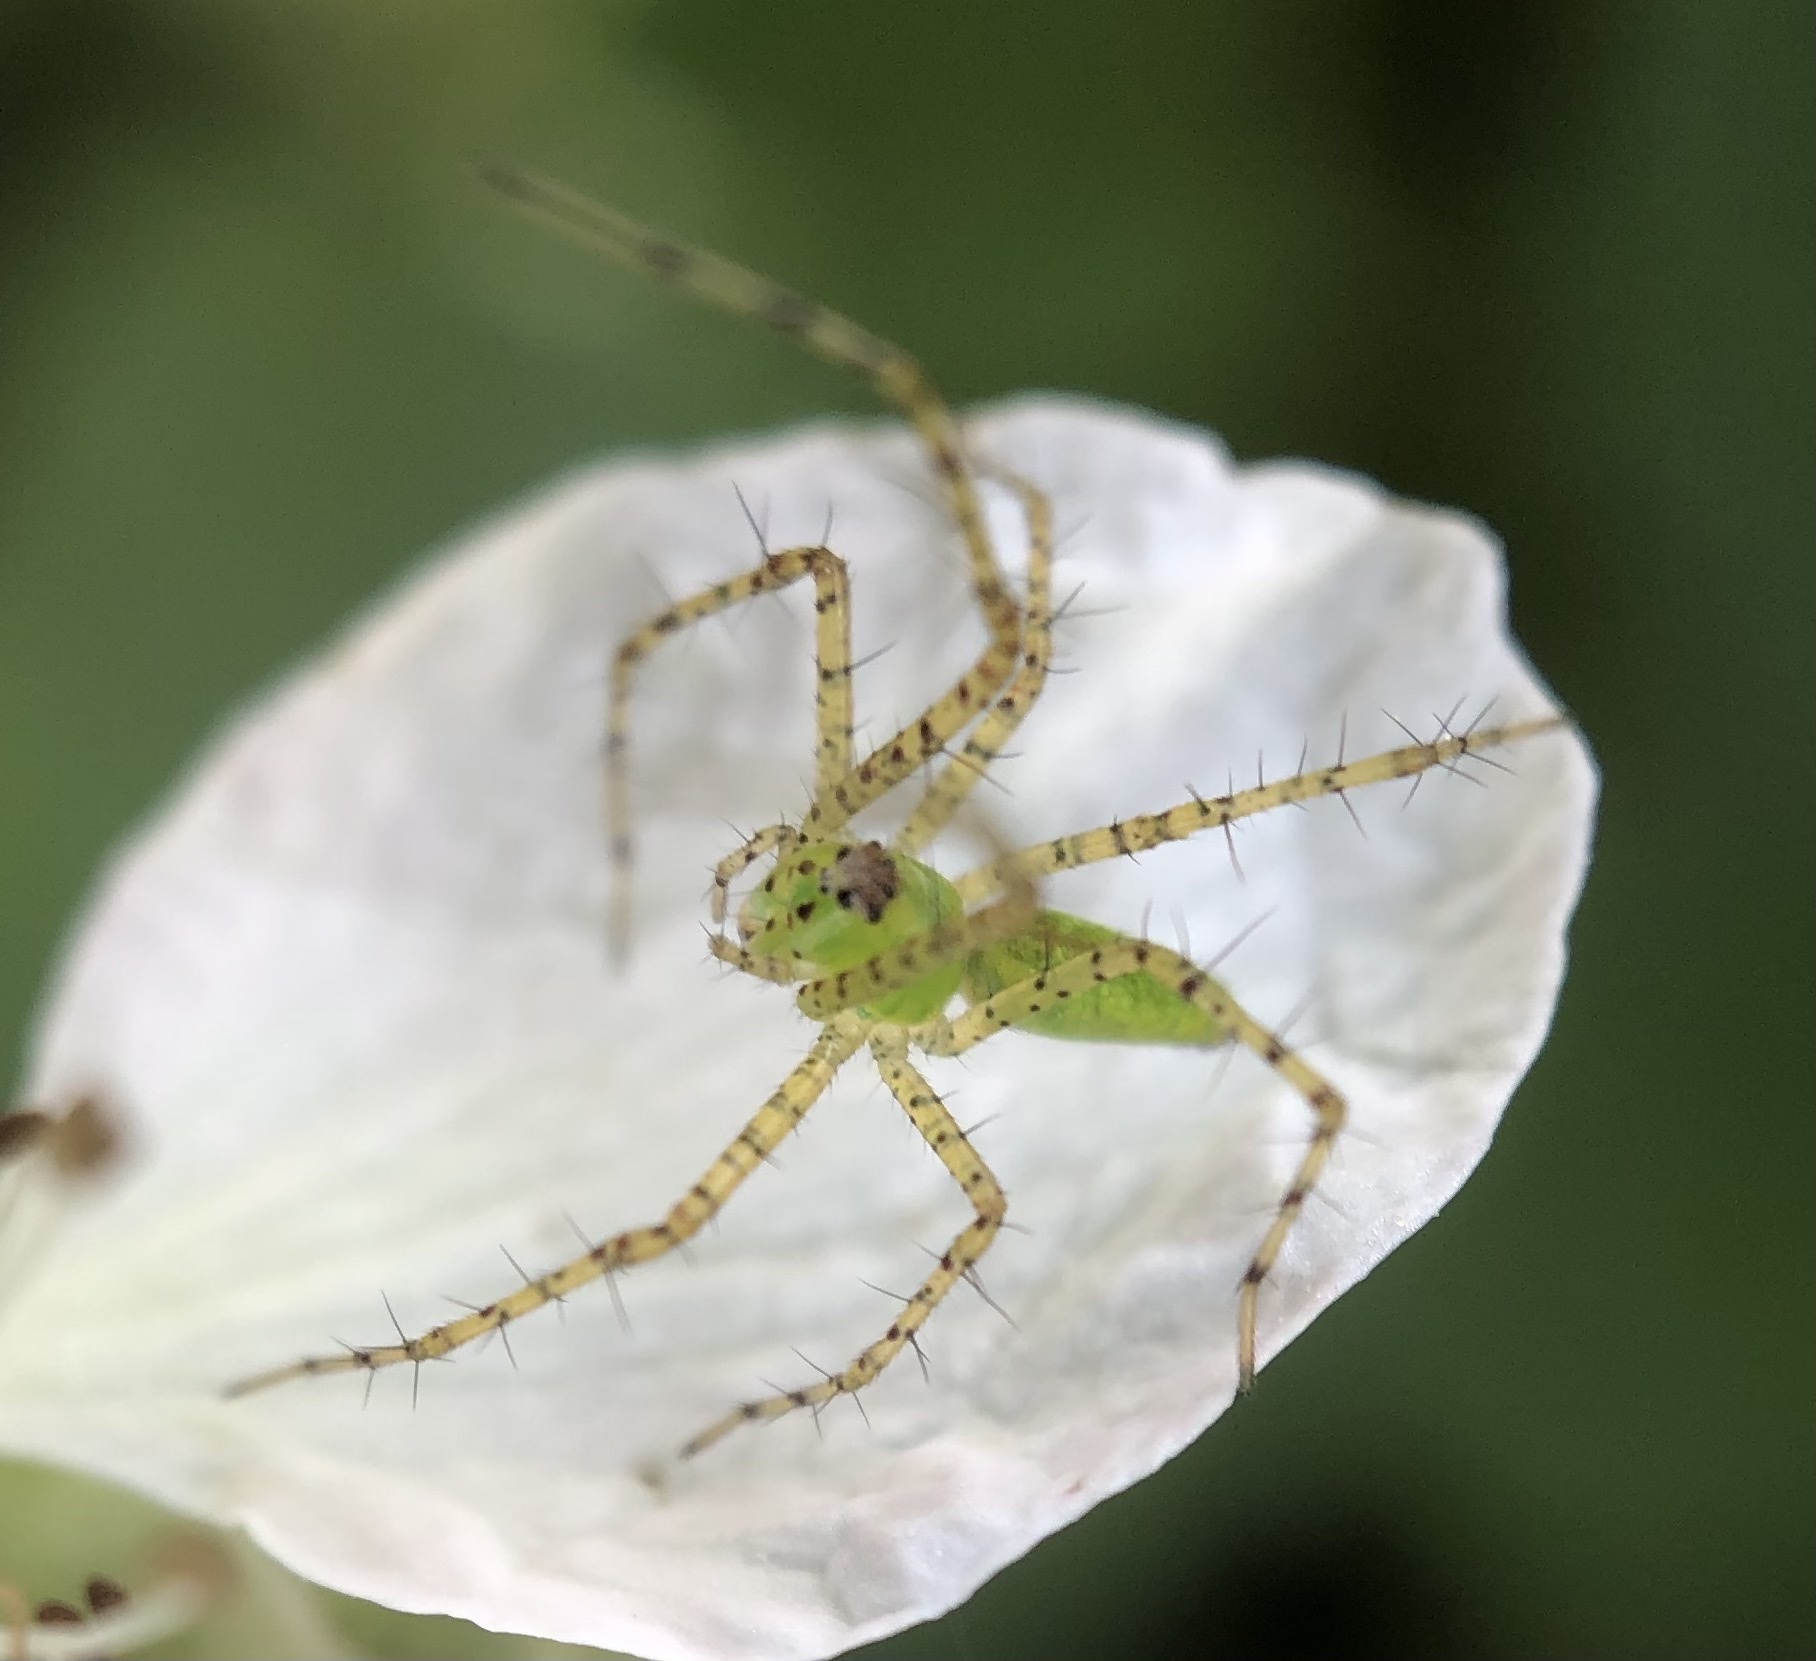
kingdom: Animalia
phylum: Arthropoda
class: Arachnida
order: Araneae
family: Oxyopidae
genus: Peucetia
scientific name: Peucetia viridans
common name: Lynx spiders
